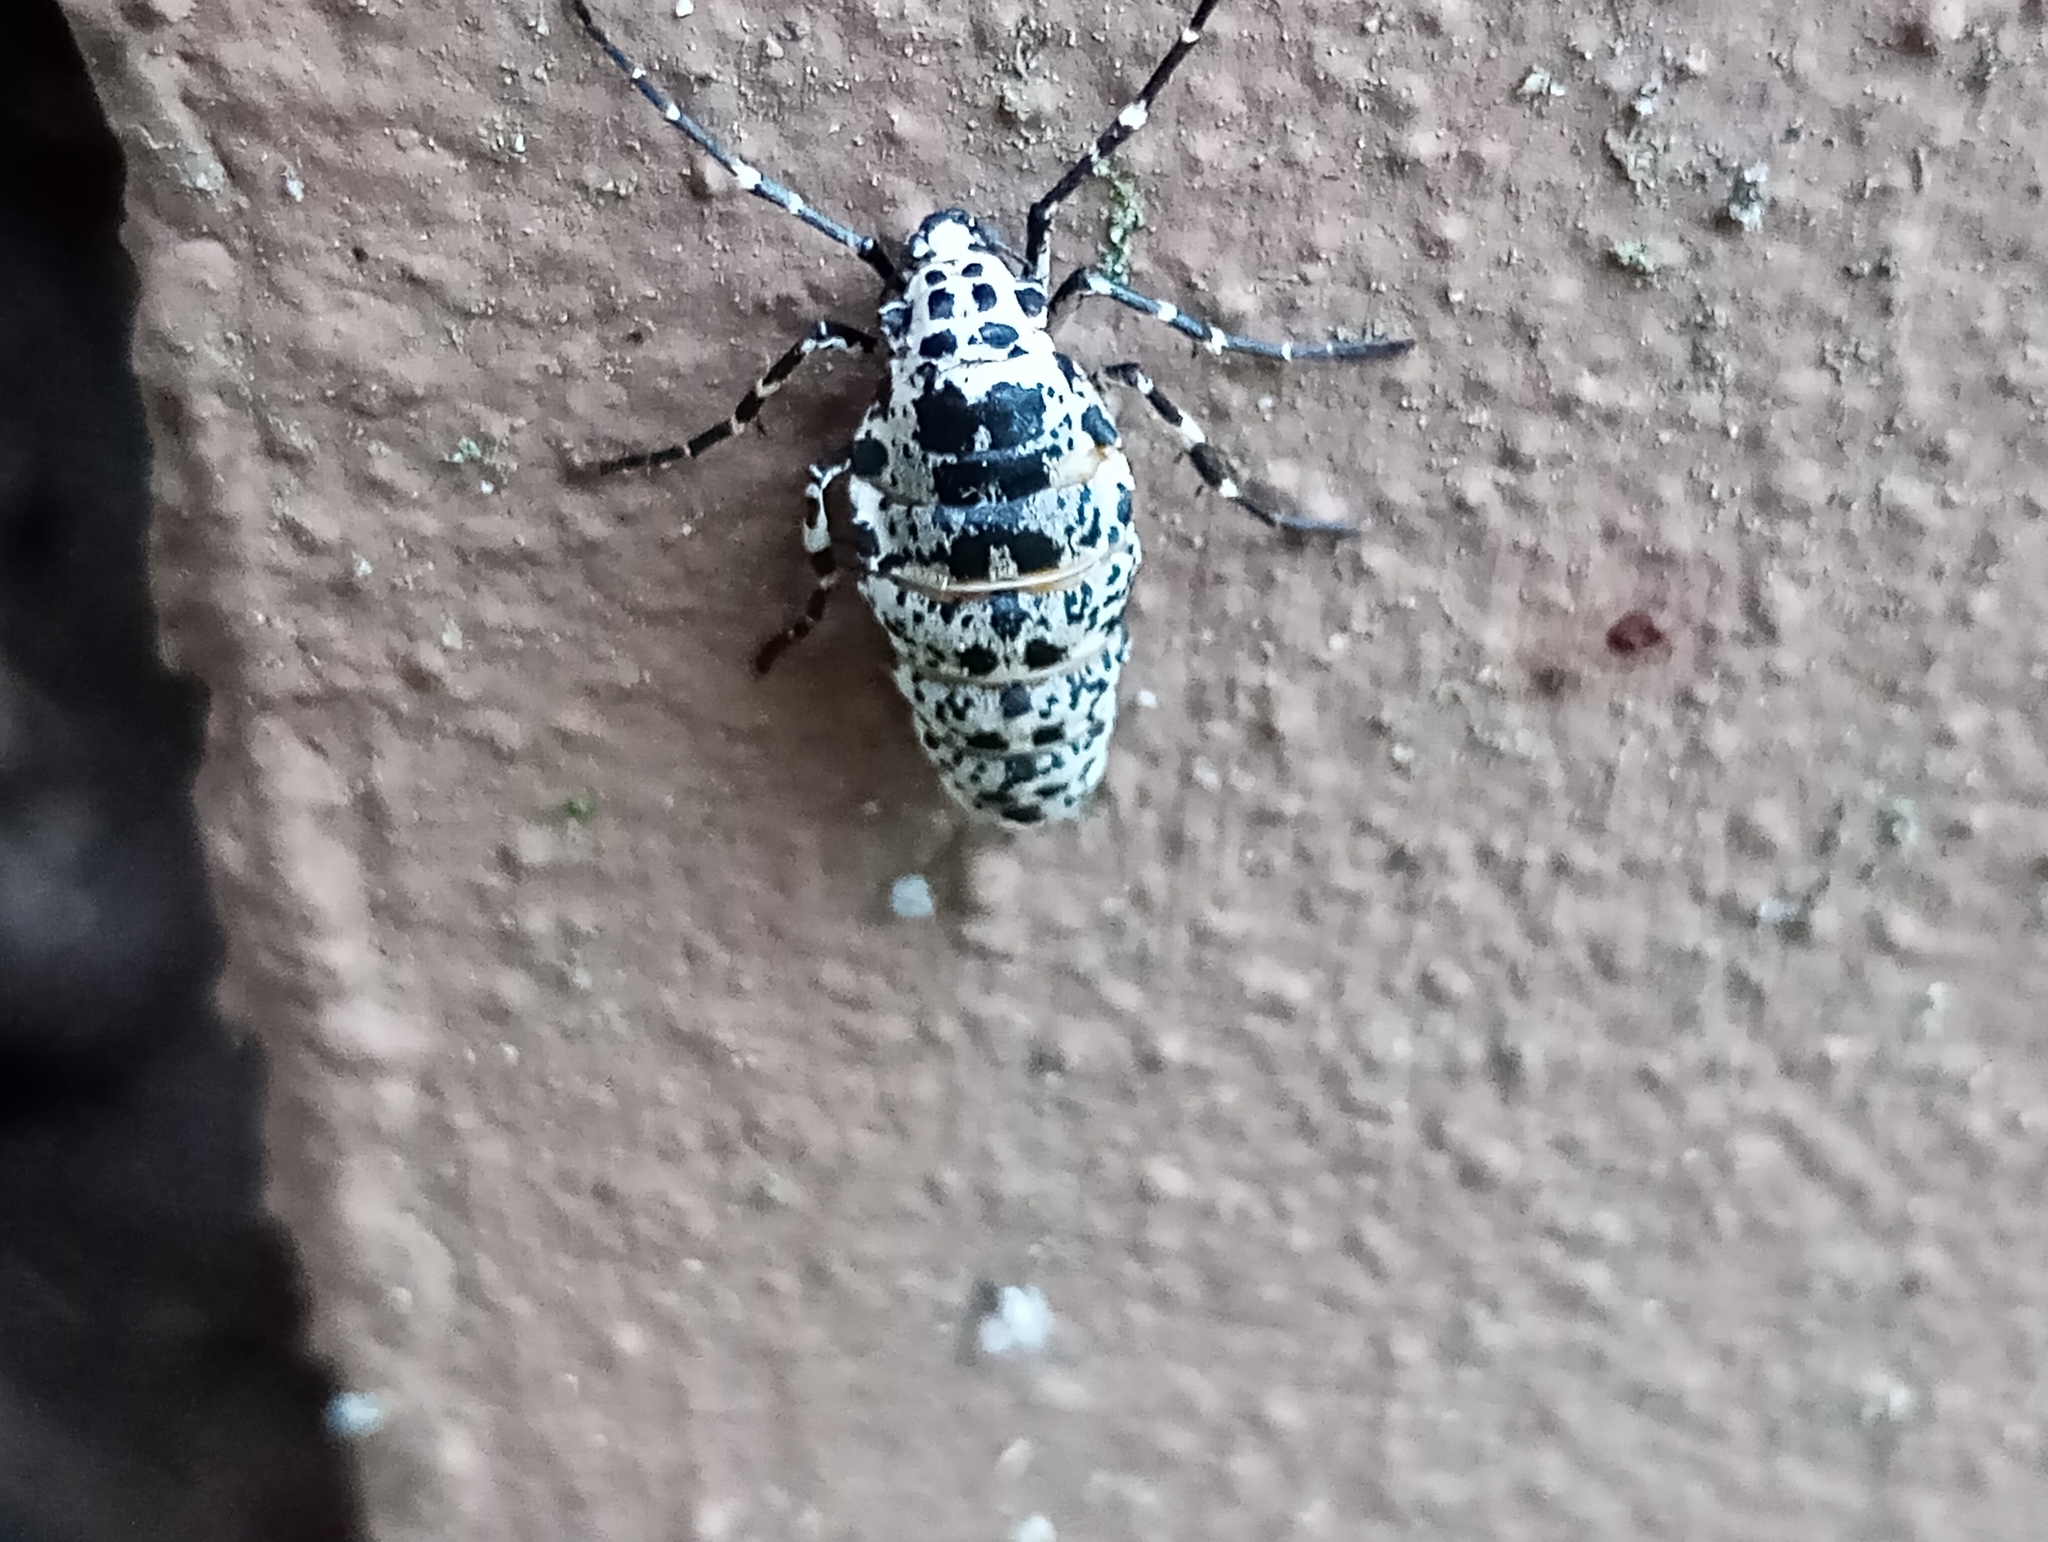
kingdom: Animalia
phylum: Arthropoda
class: Insecta
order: Lepidoptera
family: Geometridae
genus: Erannis
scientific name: Erannis defoliaria
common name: Mottled umber
